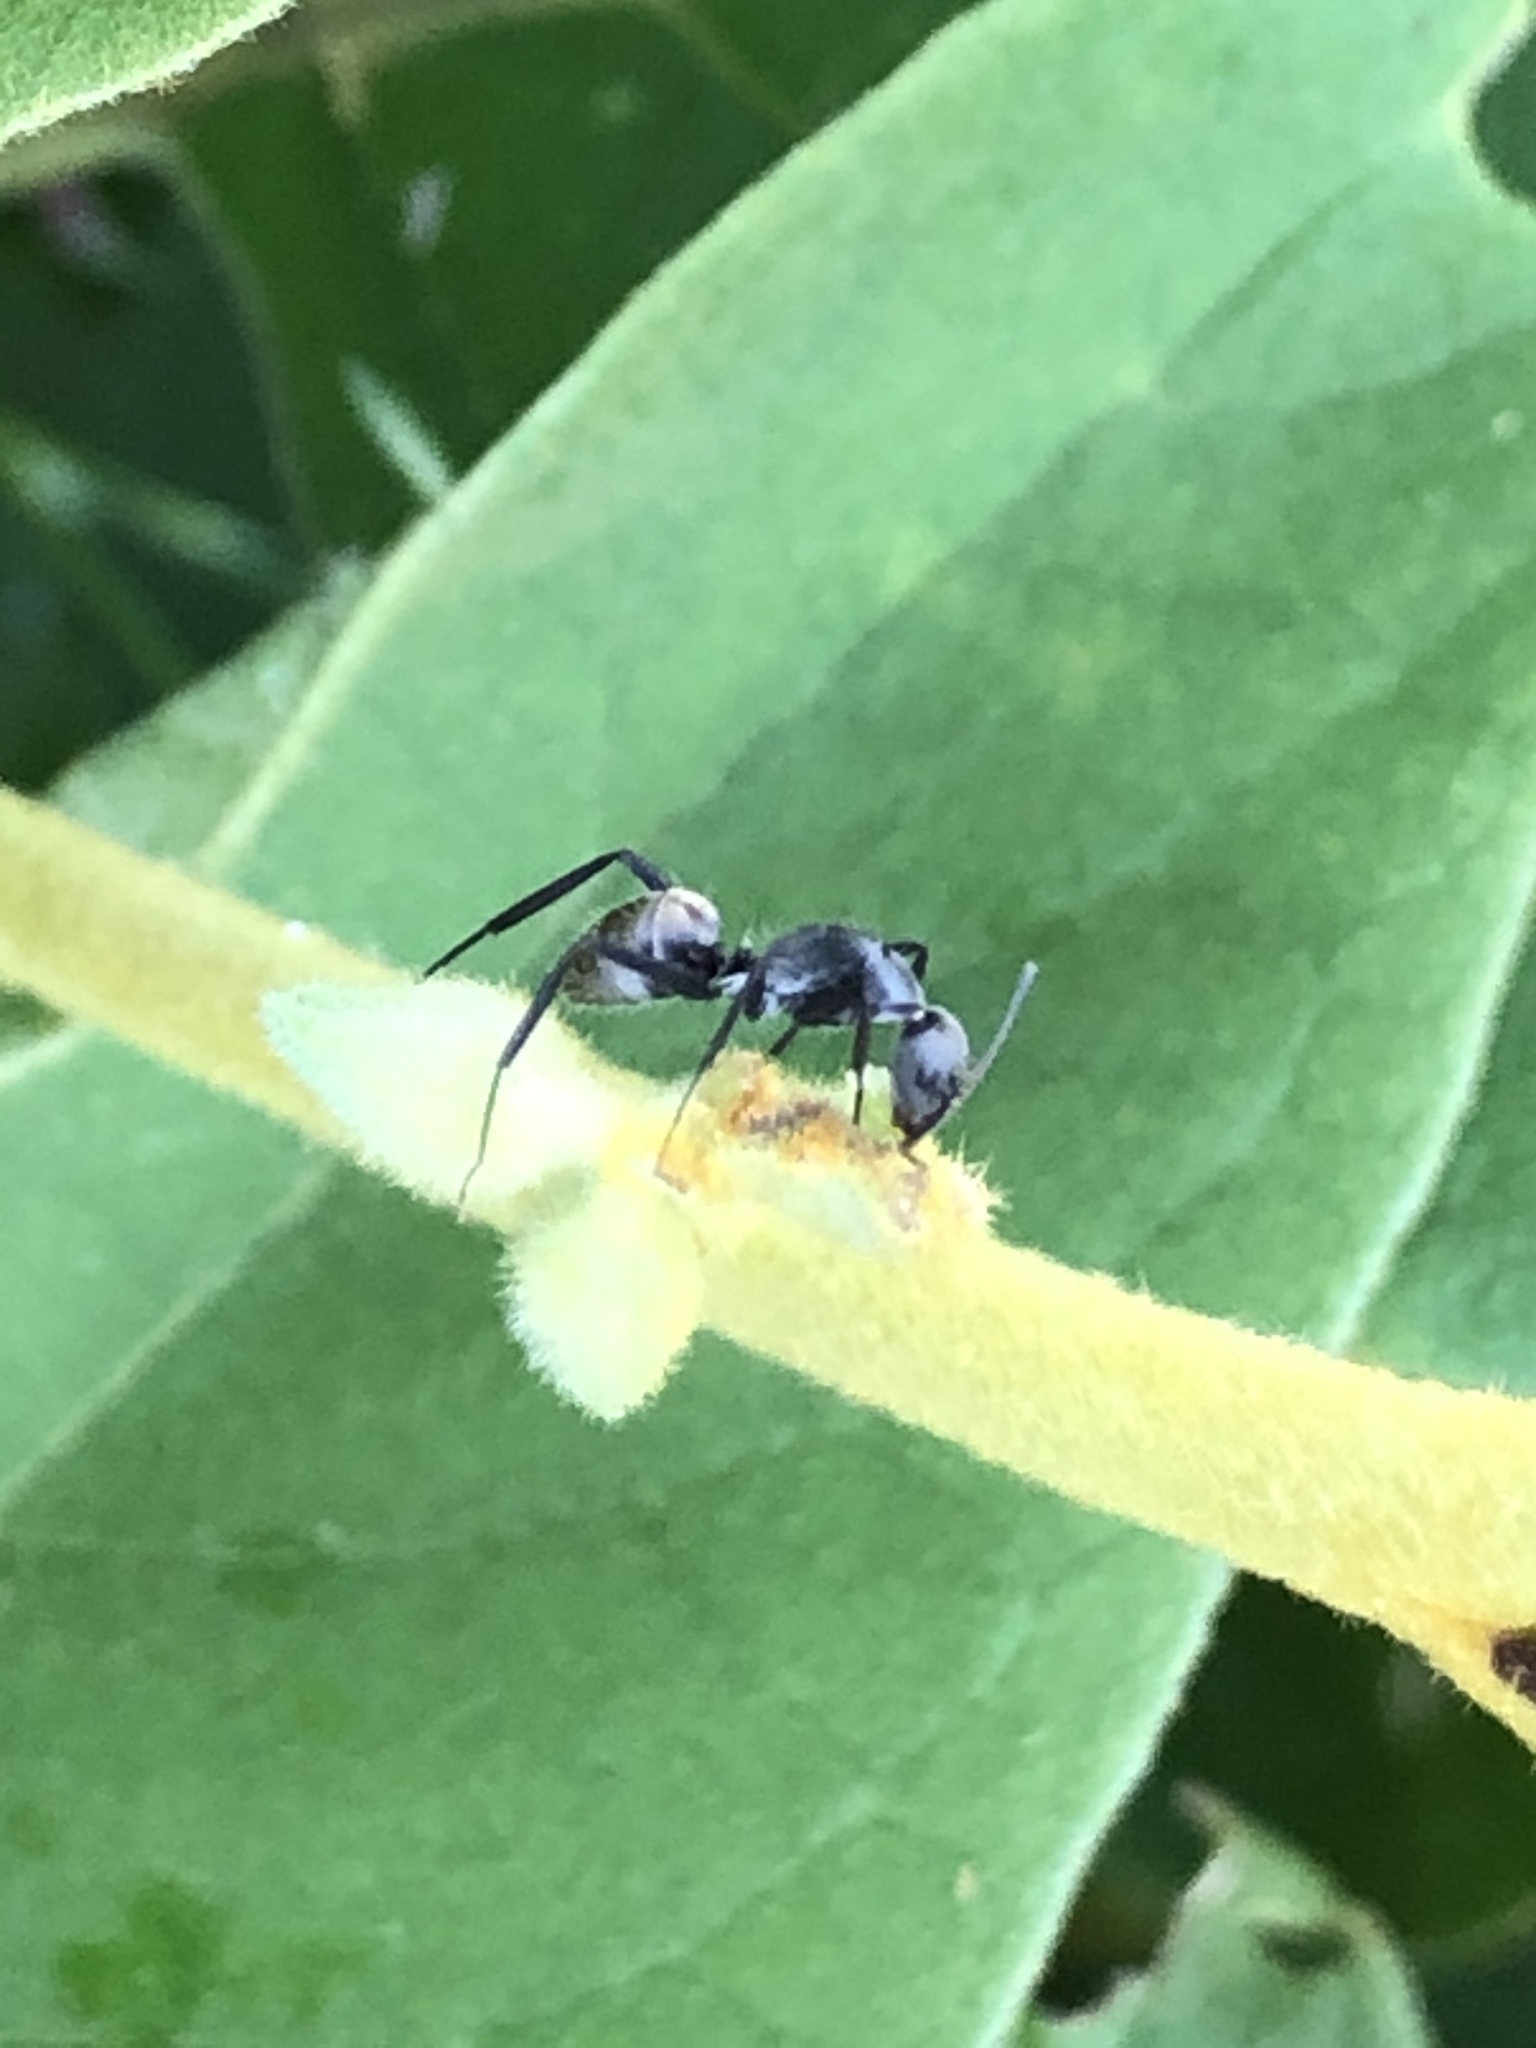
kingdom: Animalia
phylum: Arthropoda
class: Insecta
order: Hymenoptera
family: Formicidae
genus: Camponotus
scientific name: Camponotus cinctellus
